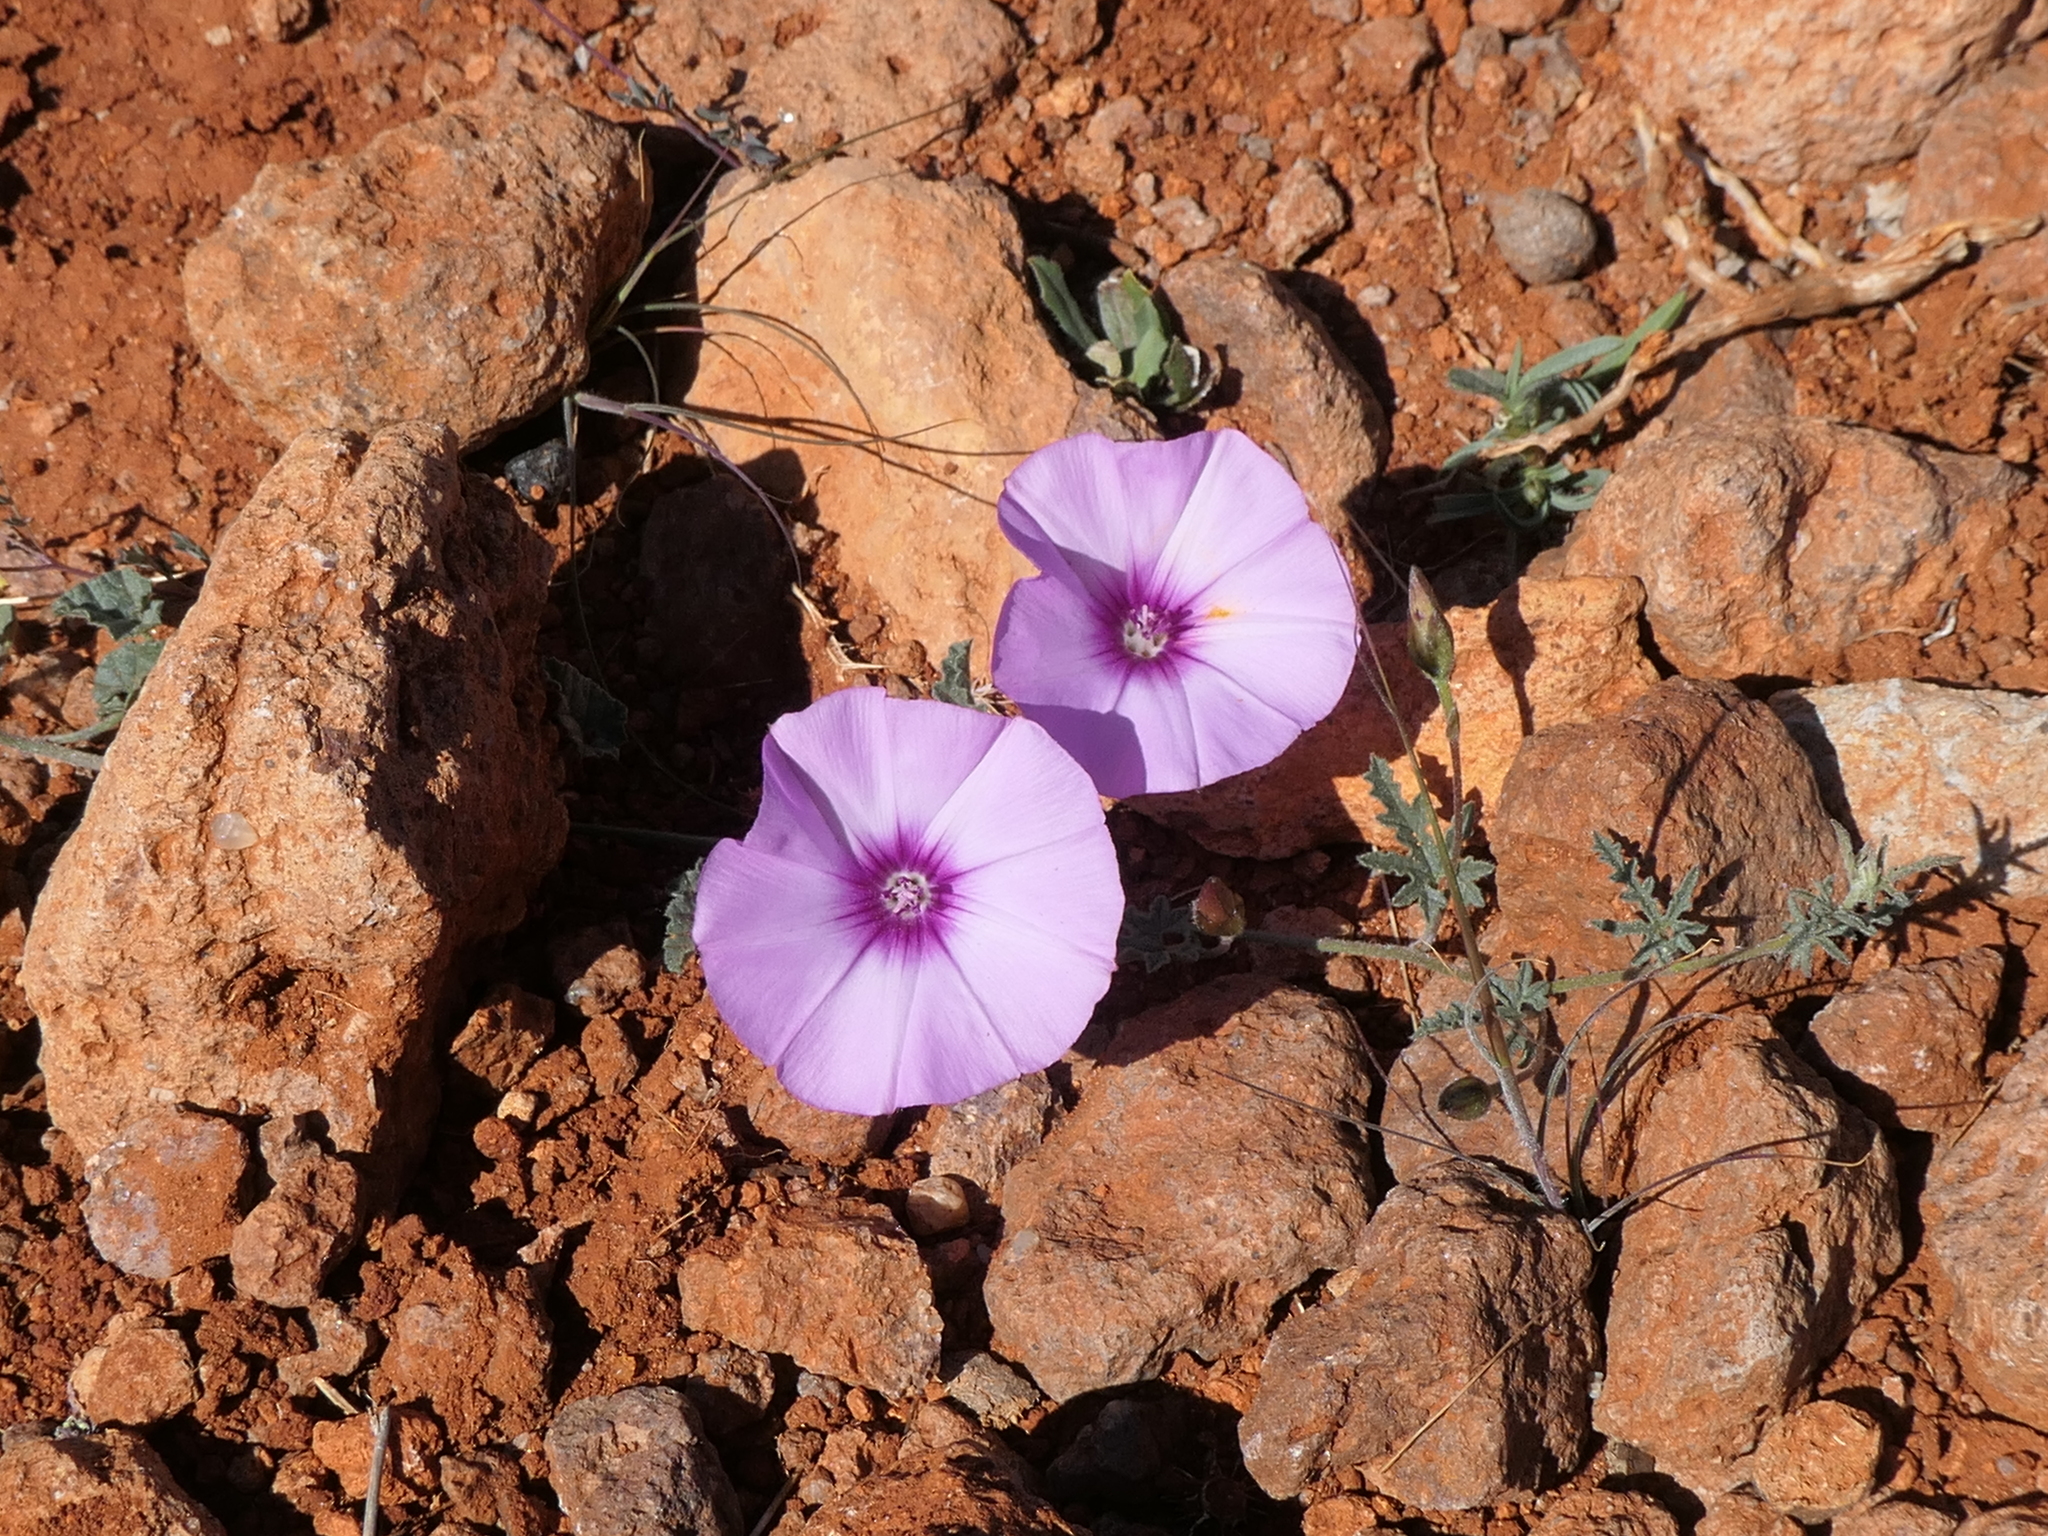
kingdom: Plantae
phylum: Tracheophyta
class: Magnoliopsida
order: Solanales
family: Convolvulaceae
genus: Convolvulus
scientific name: Convolvulus althaeoides
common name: Mallow bindweed
